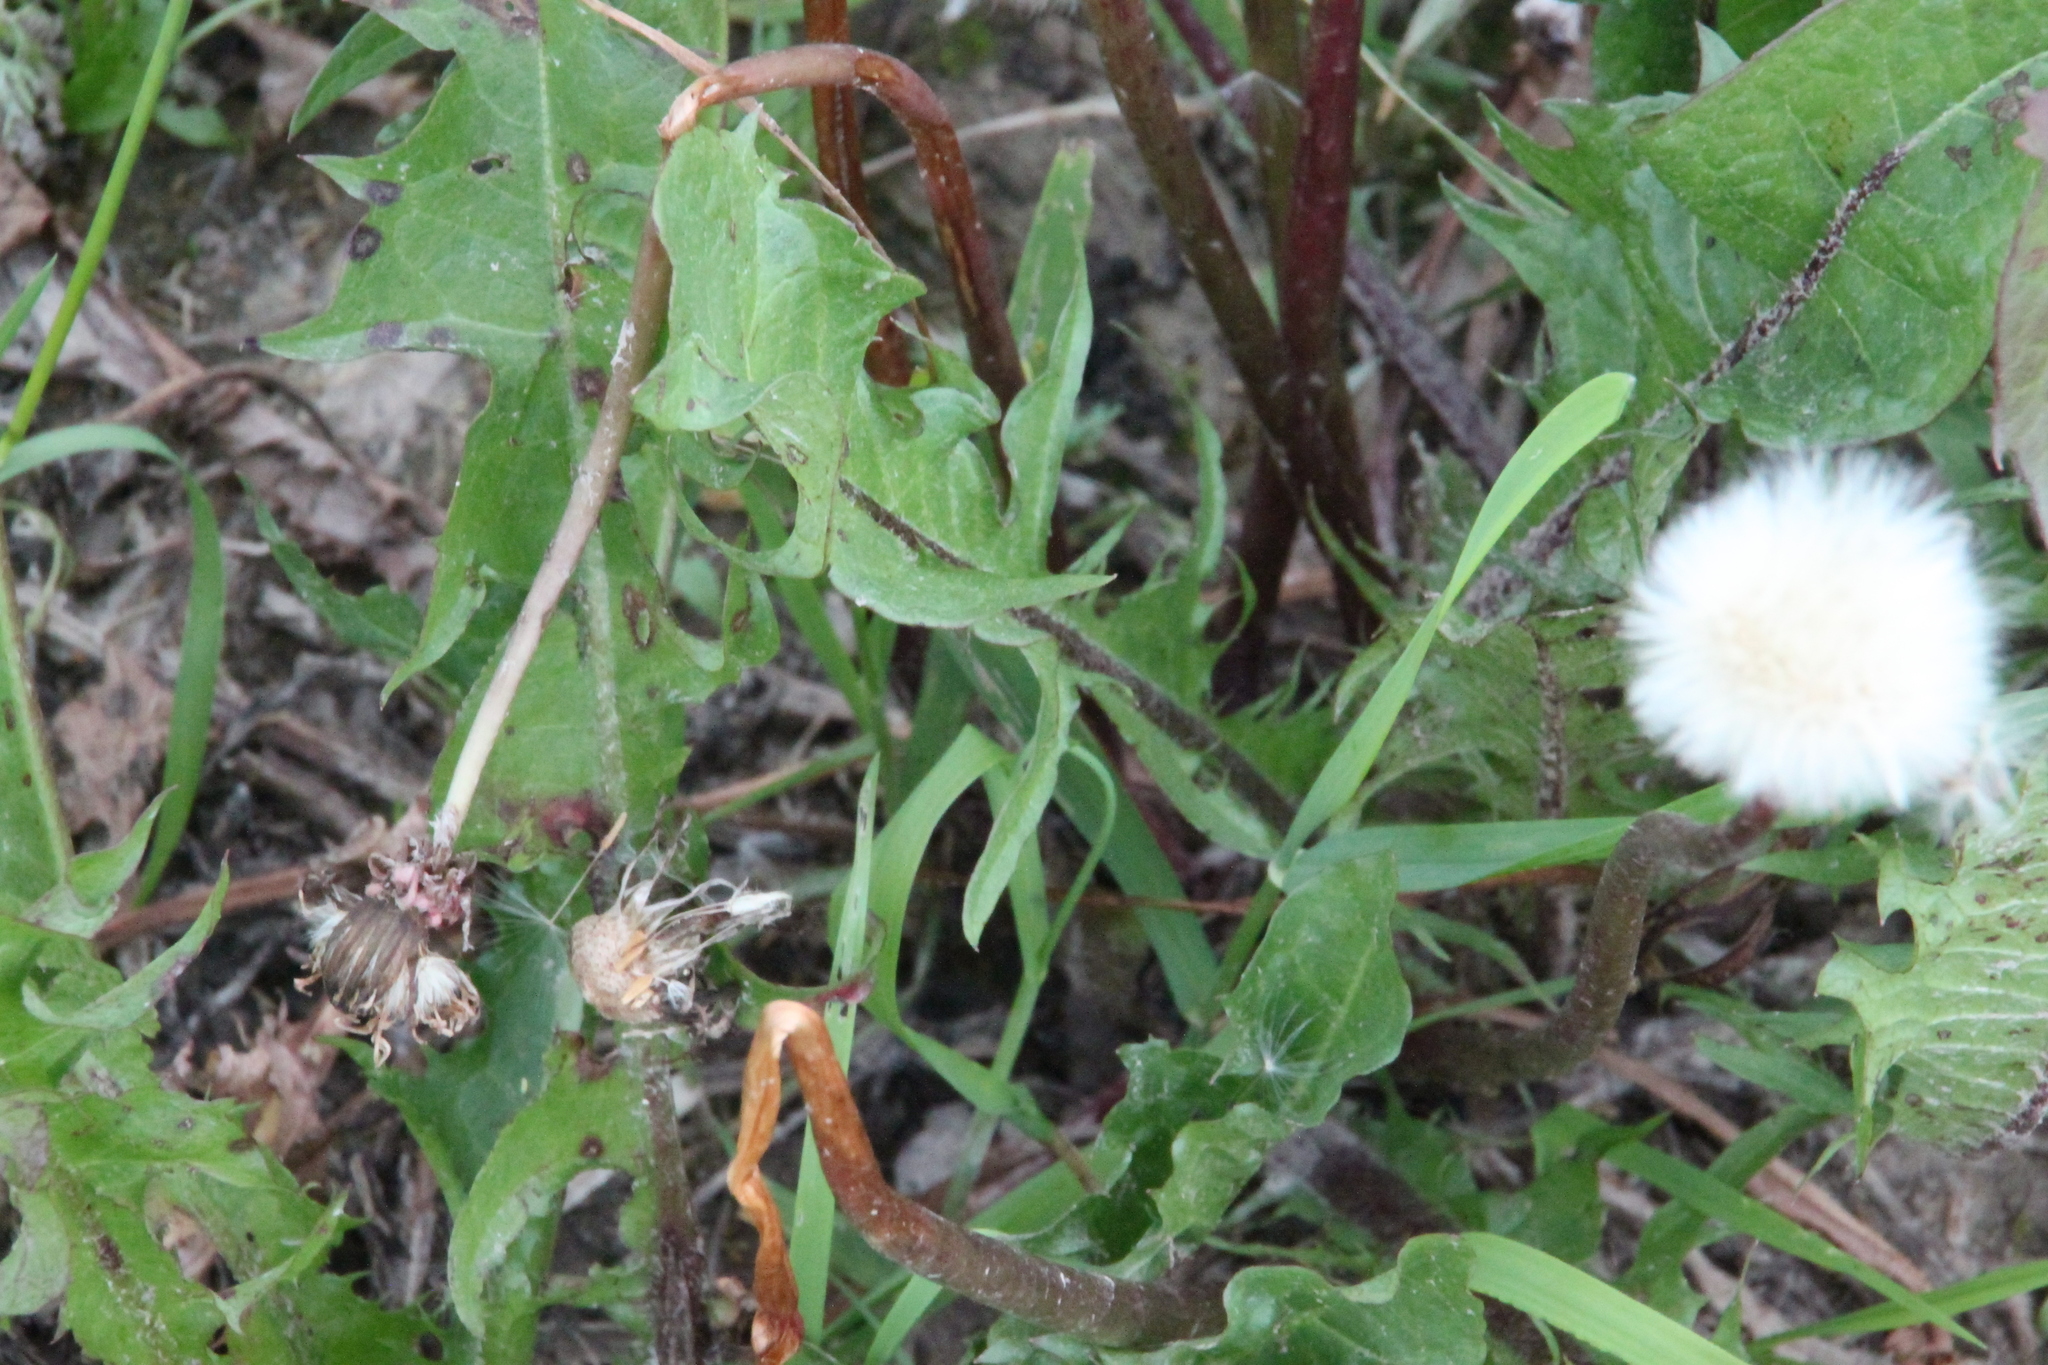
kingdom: Plantae
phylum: Tracheophyta
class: Magnoliopsida
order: Asterales
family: Asteraceae
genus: Taraxacum
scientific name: Taraxacum officinale
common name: Common dandelion
